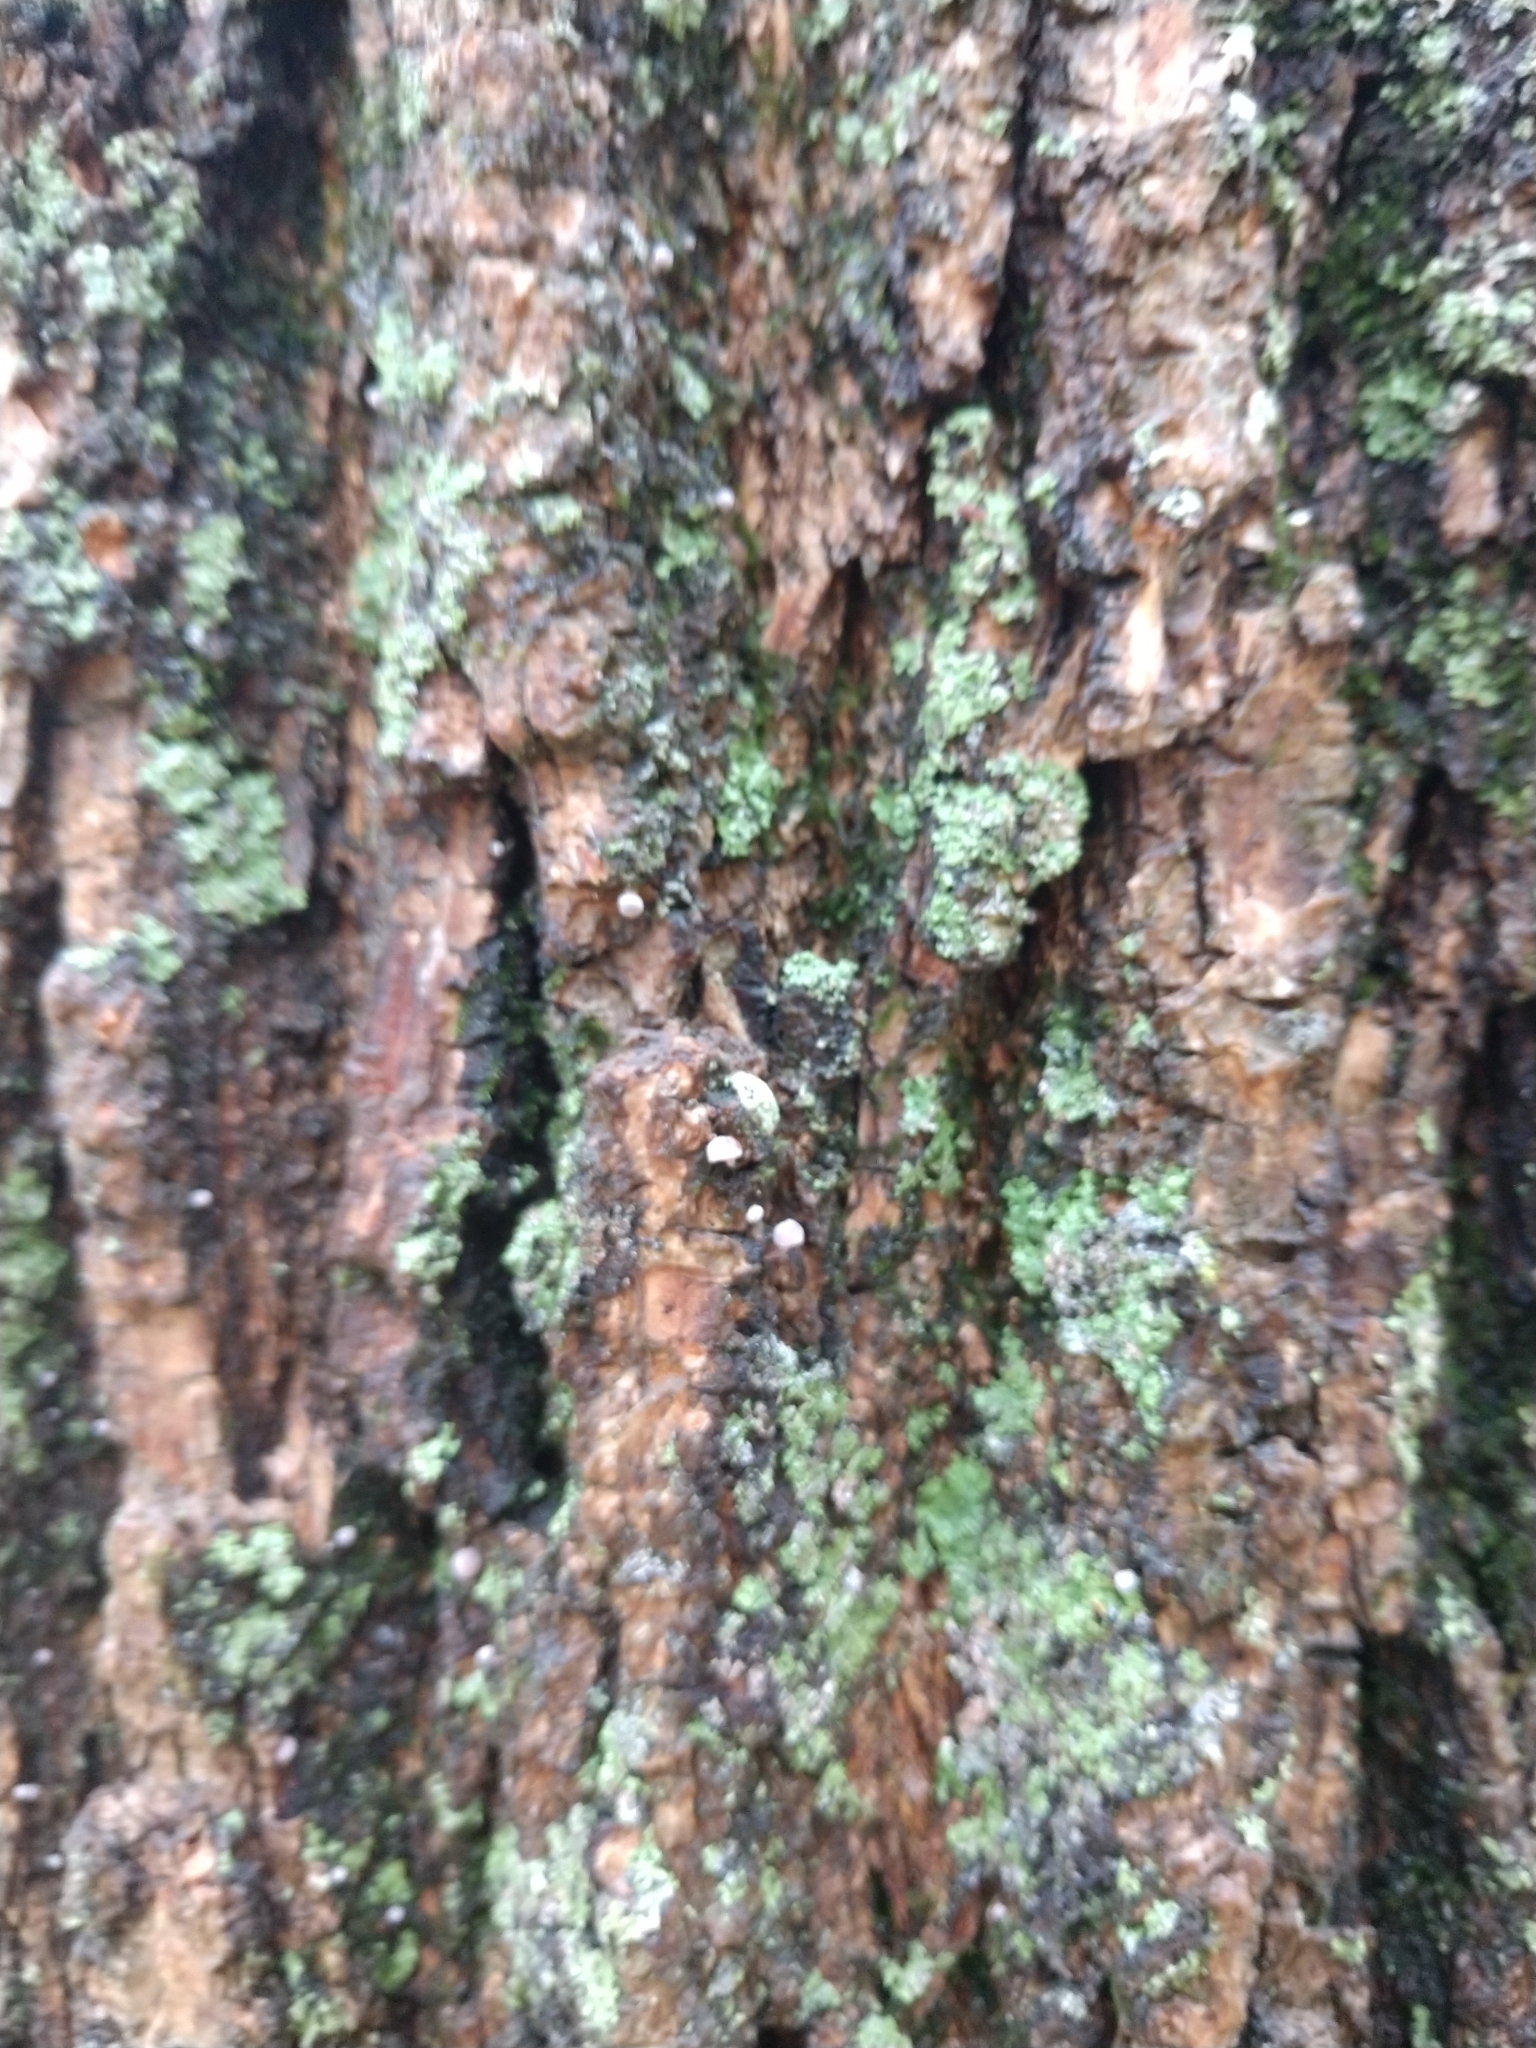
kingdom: Fungi
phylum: Basidiomycota
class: Agaricomycetes
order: Agaricales
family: Mycenaceae
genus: Mycena
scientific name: Mycena corticola
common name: Bark mycena
